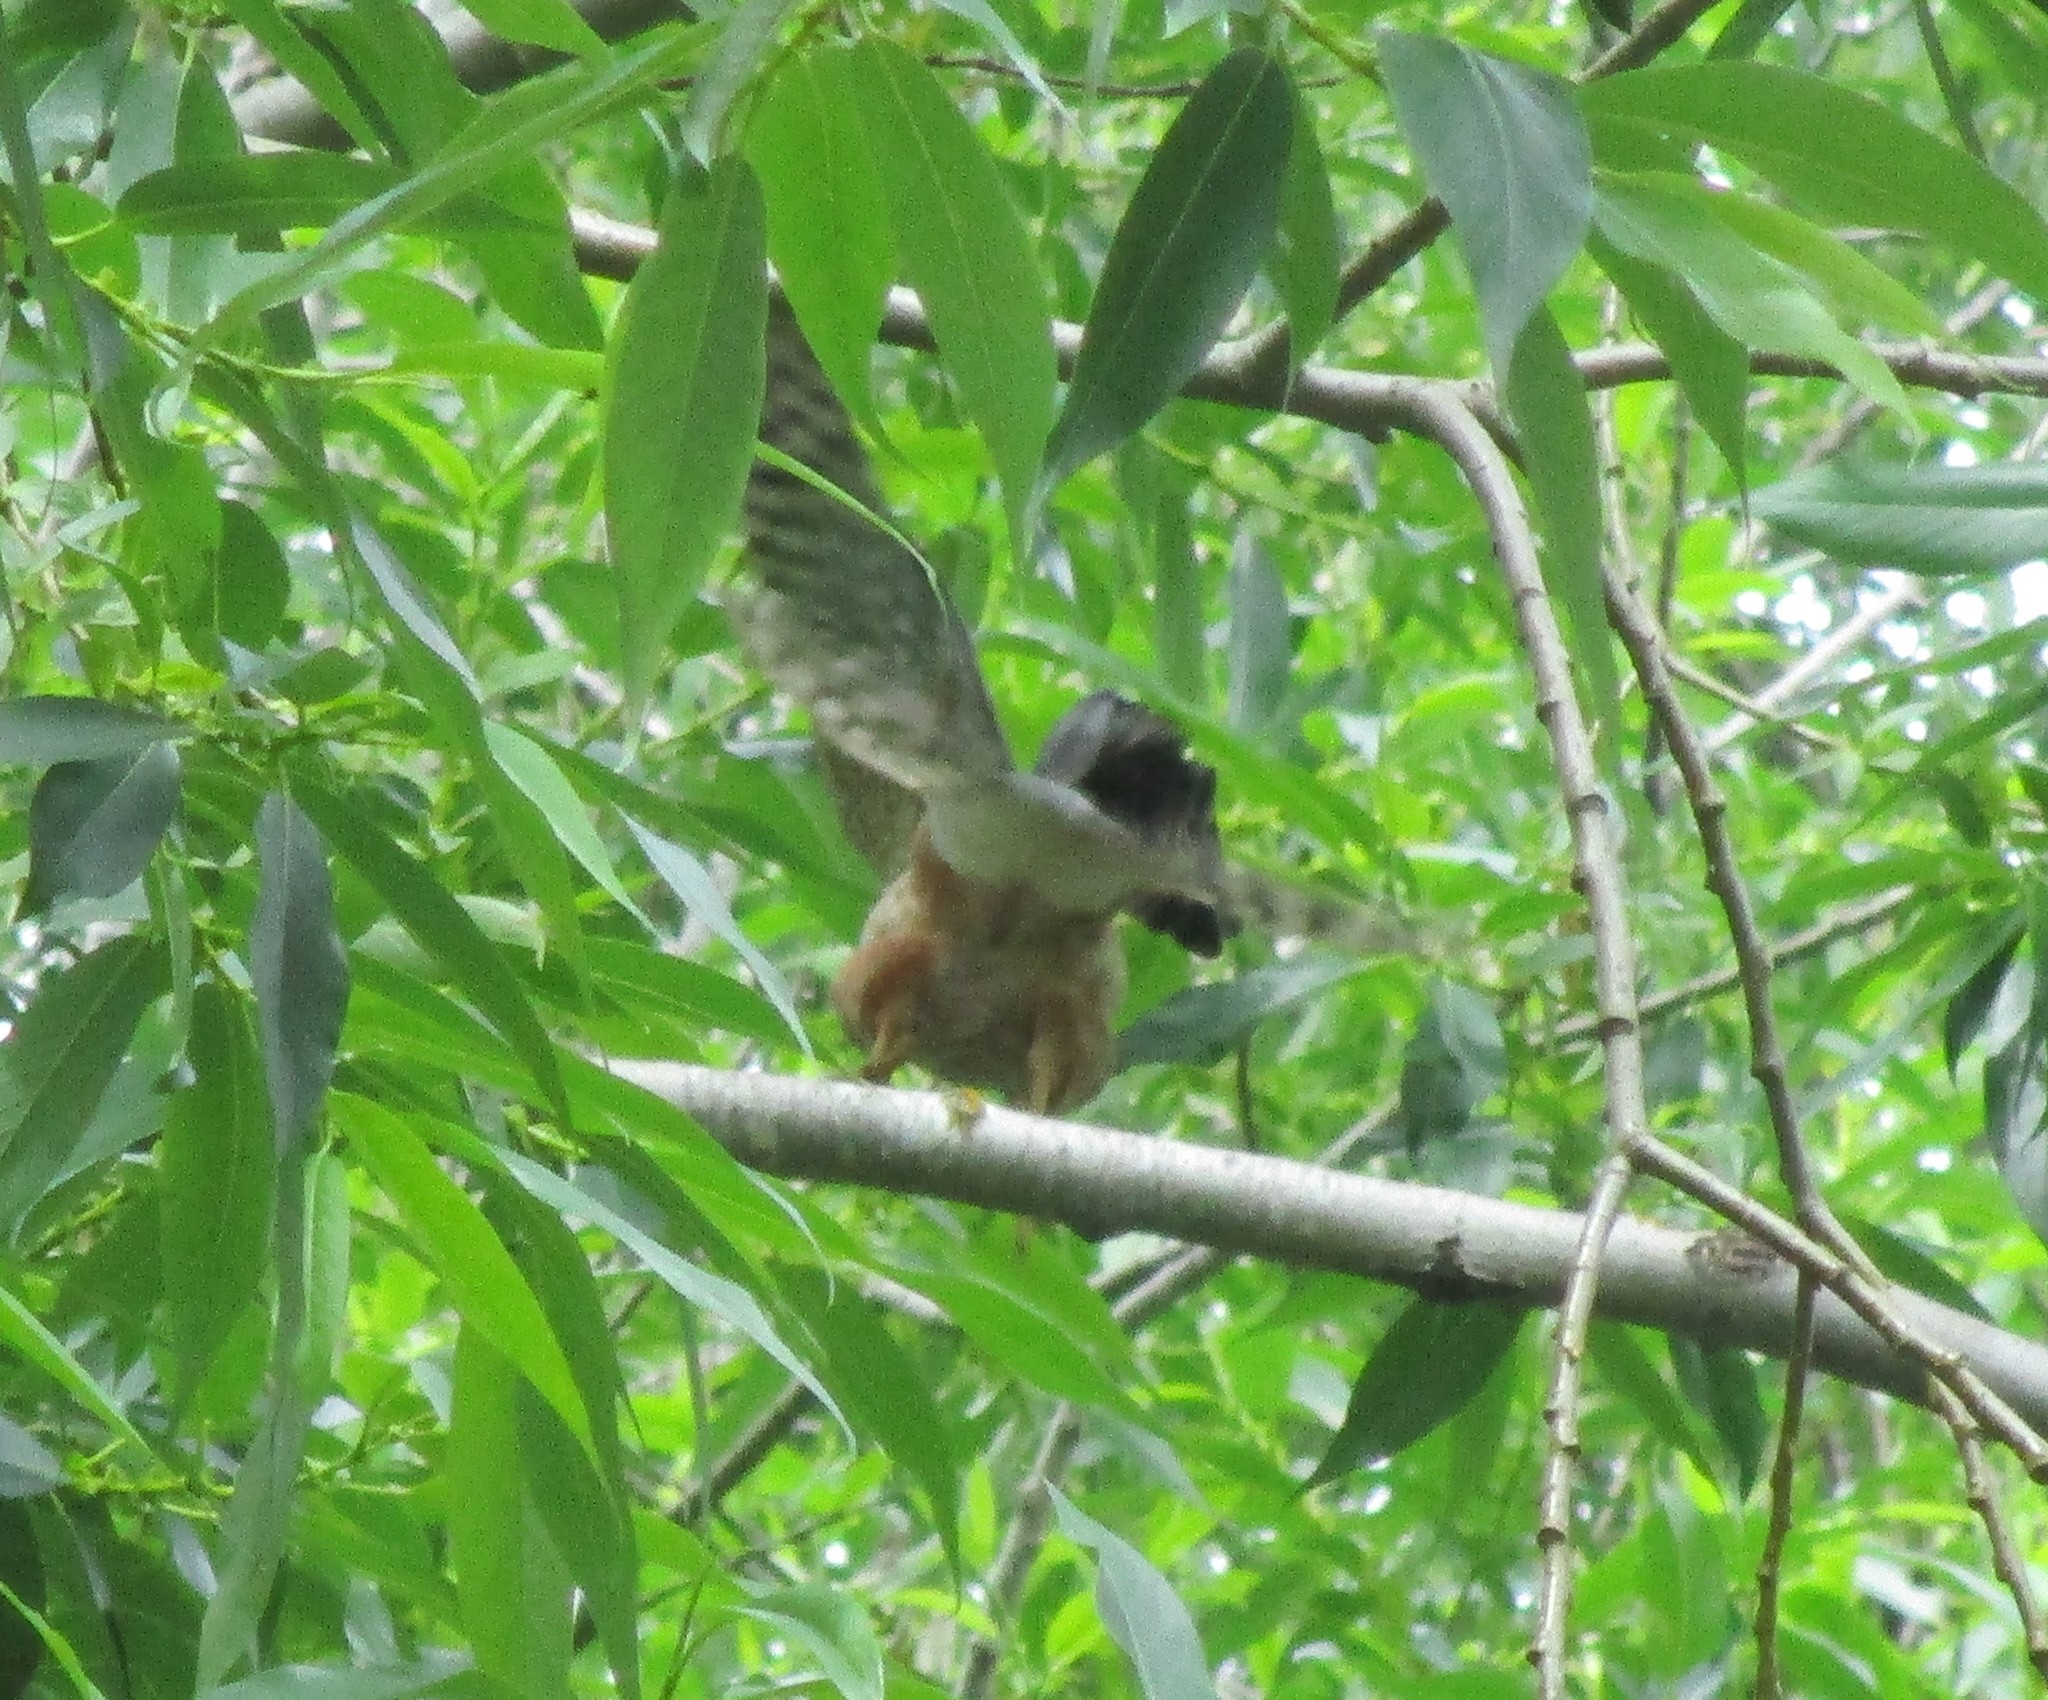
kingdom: Animalia
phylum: Chordata
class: Aves
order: Accipitriformes
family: Accipitridae
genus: Accipiter
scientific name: Accipiter cooperii
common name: Cooper's hawk
